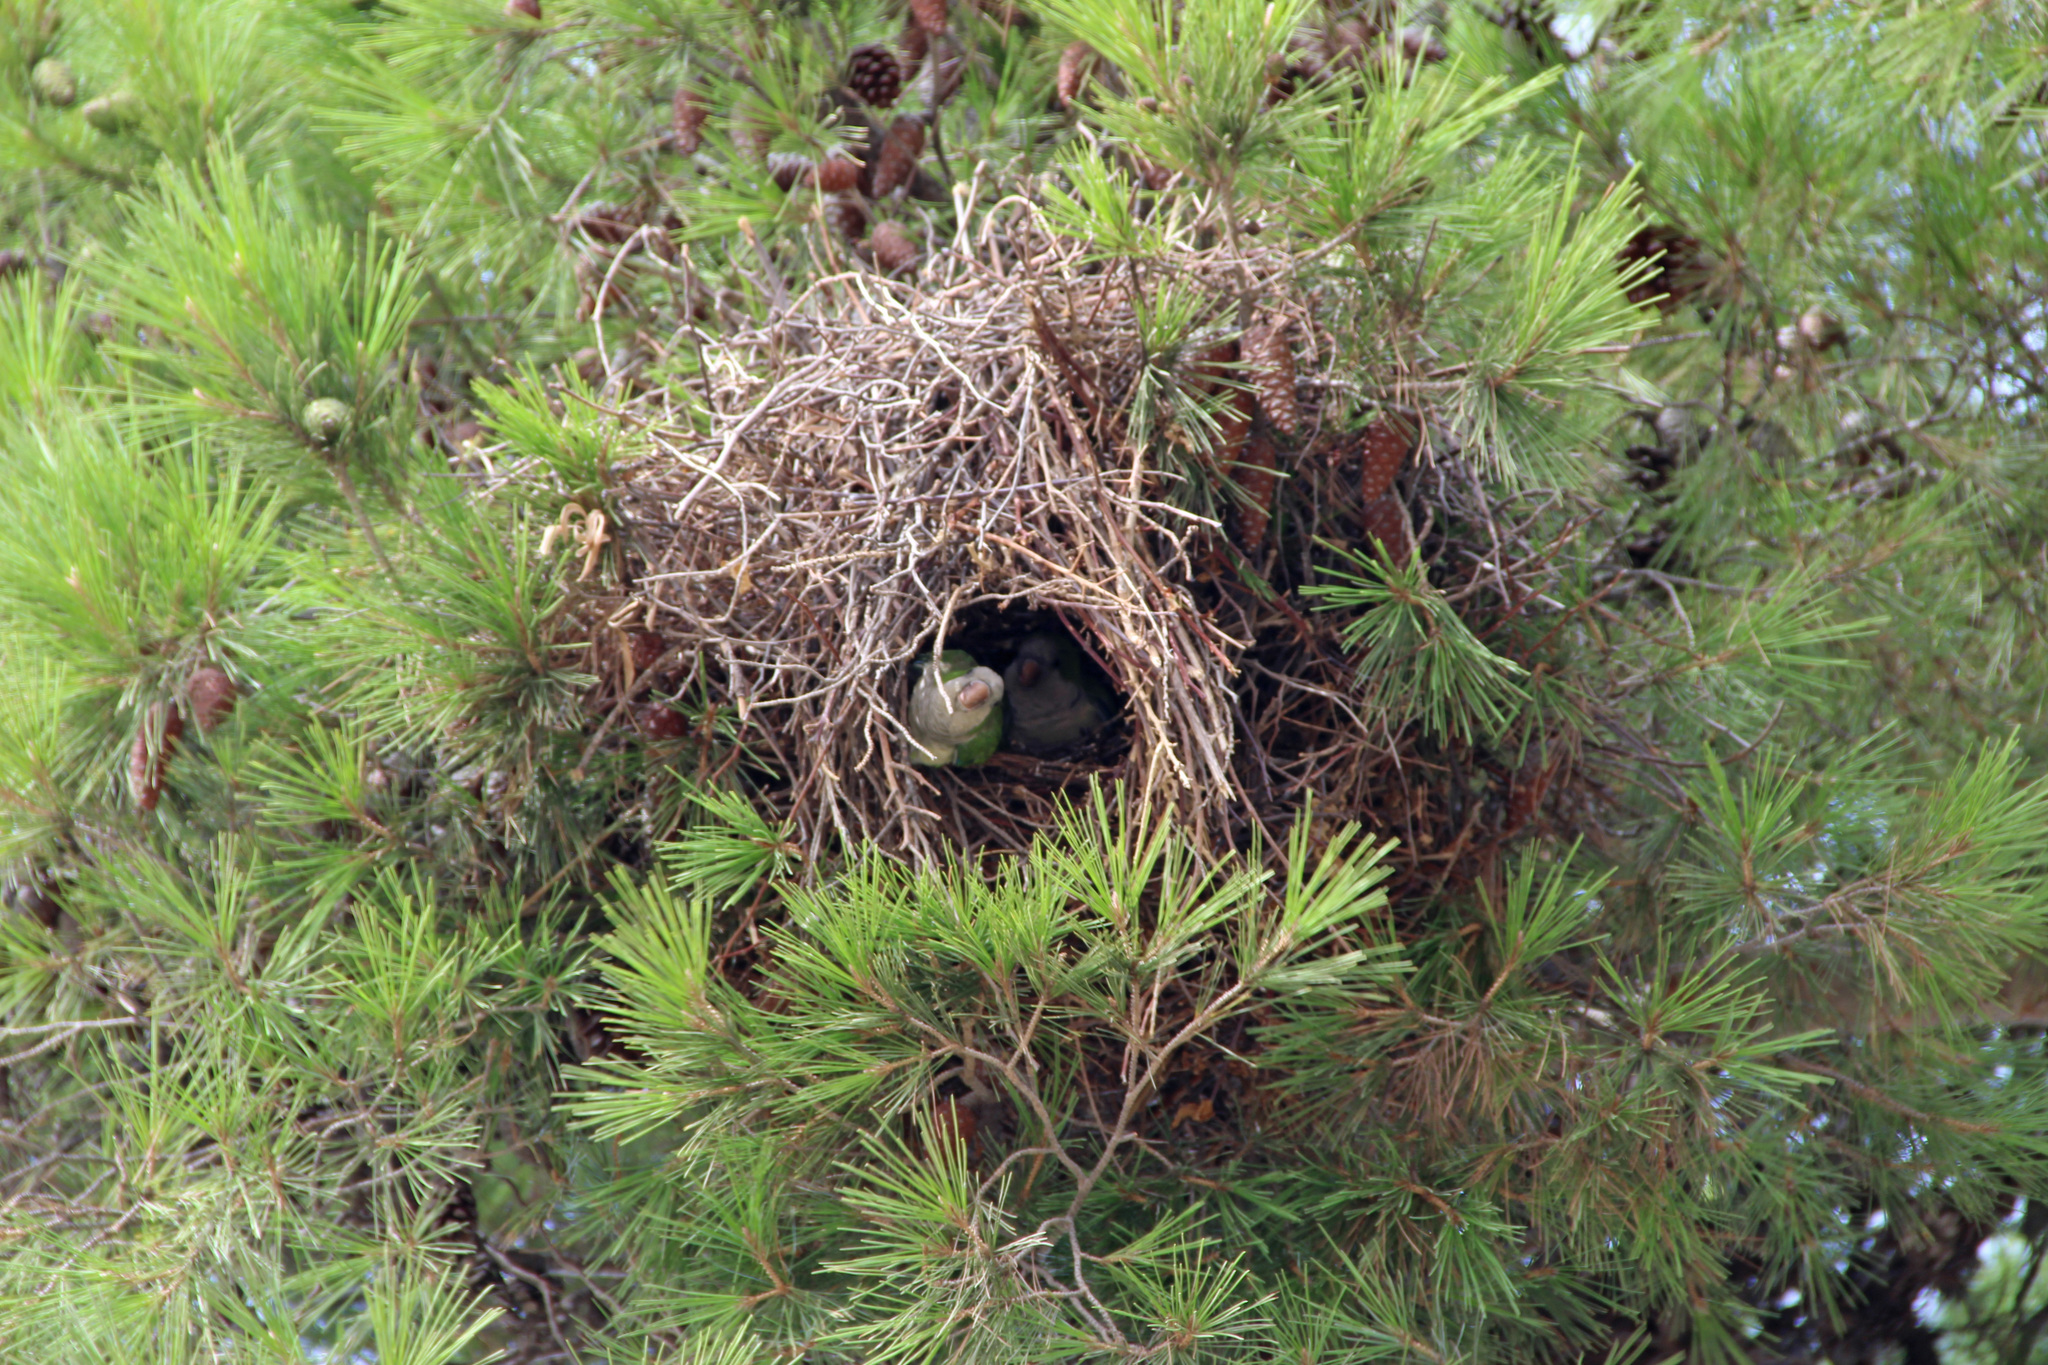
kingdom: Animalia
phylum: Chordata
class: Aves
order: Psittaciformes
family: Psittacidae
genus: Myiopsitta
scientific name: Myiopsitta monachus
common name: Monk parakeet
